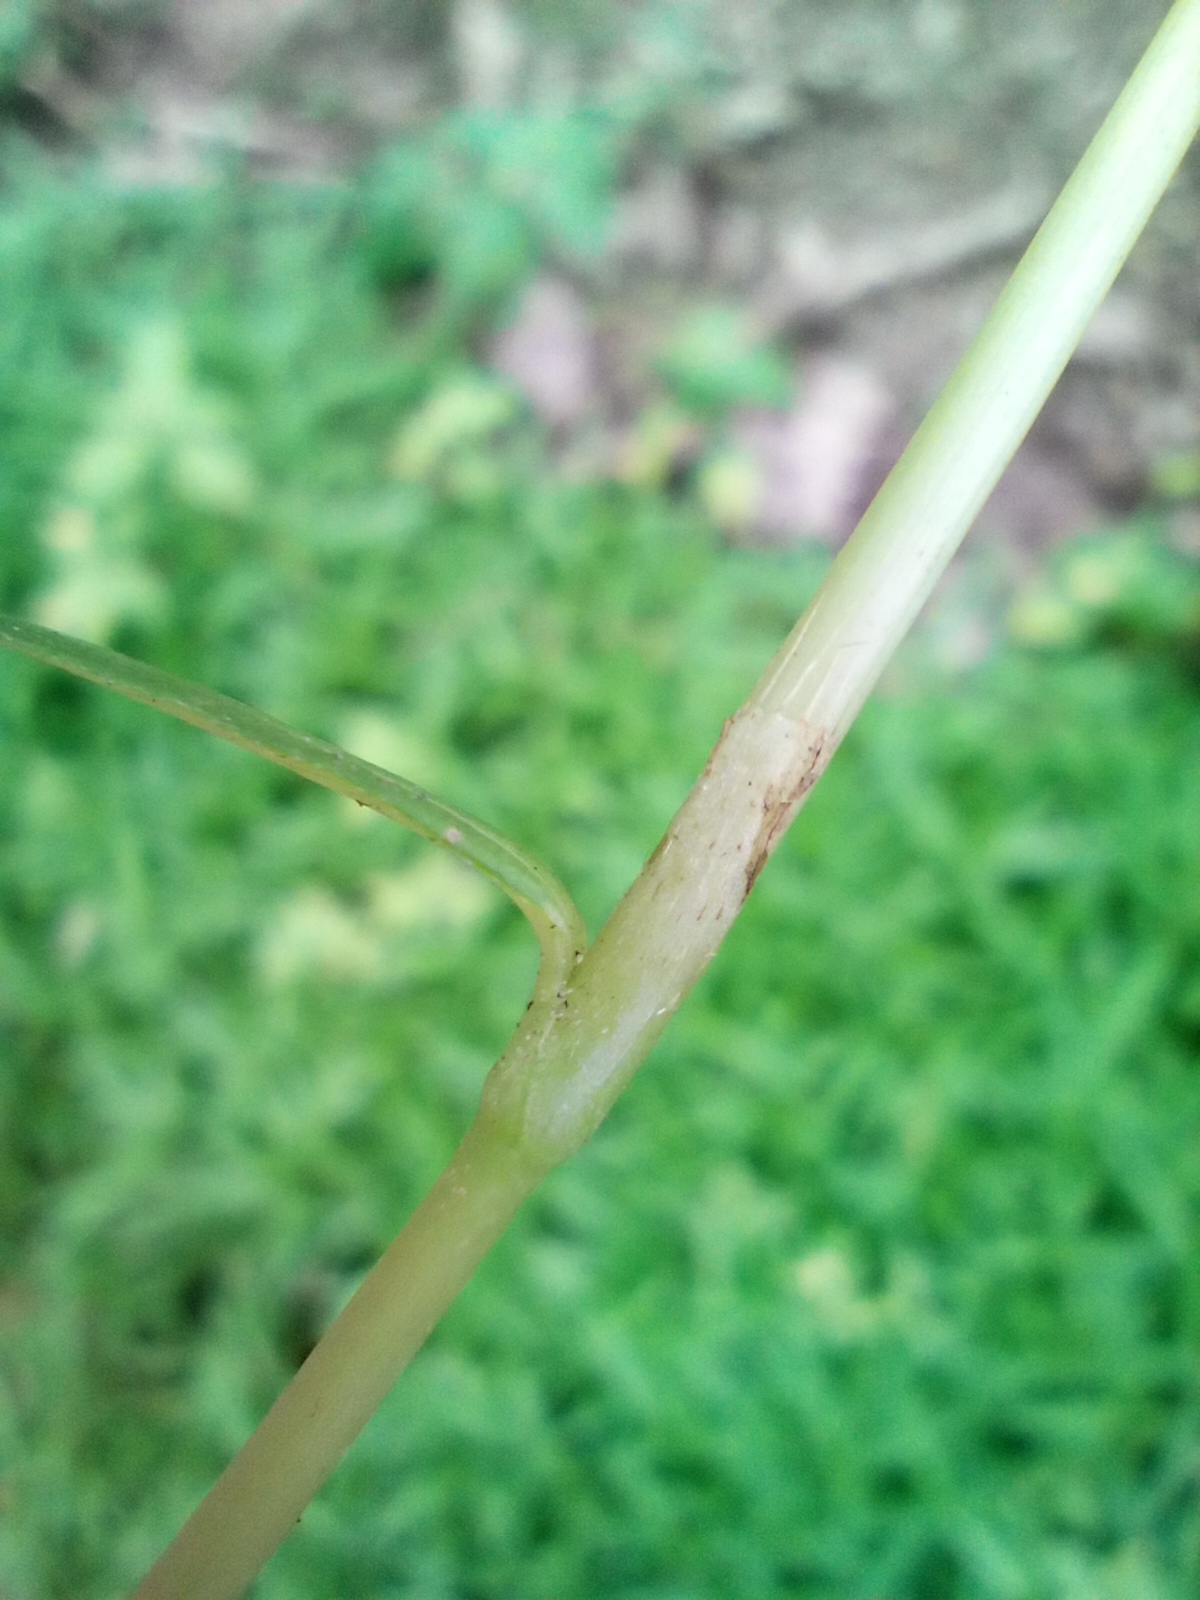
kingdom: Plantae
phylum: Tracheophyta
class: Magnoliopsida
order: Caryophyllales
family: Polygonaceae
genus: Persicaria
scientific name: Persicaria minor
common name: Small water-pepper
